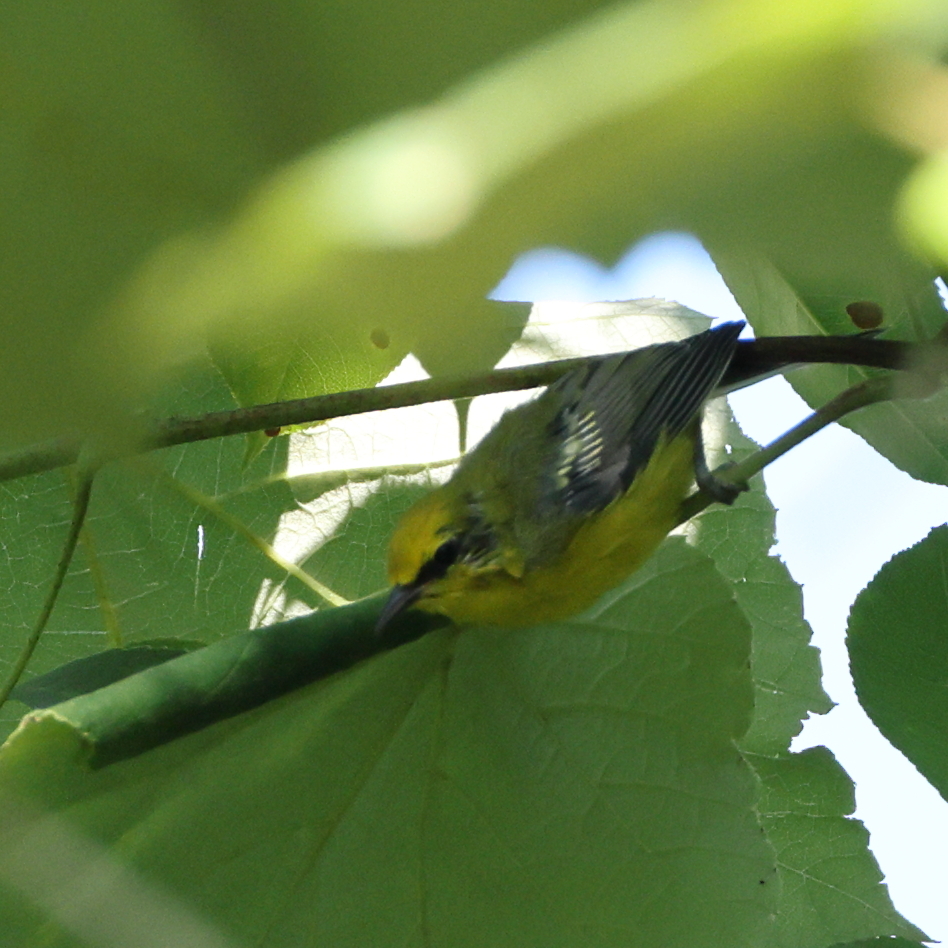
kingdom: Animalia
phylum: Chordata
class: Aves
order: Passeriformes
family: Parulidae
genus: Vermivora
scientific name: Vermivora cyanoptera
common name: Blue-winged warbler
